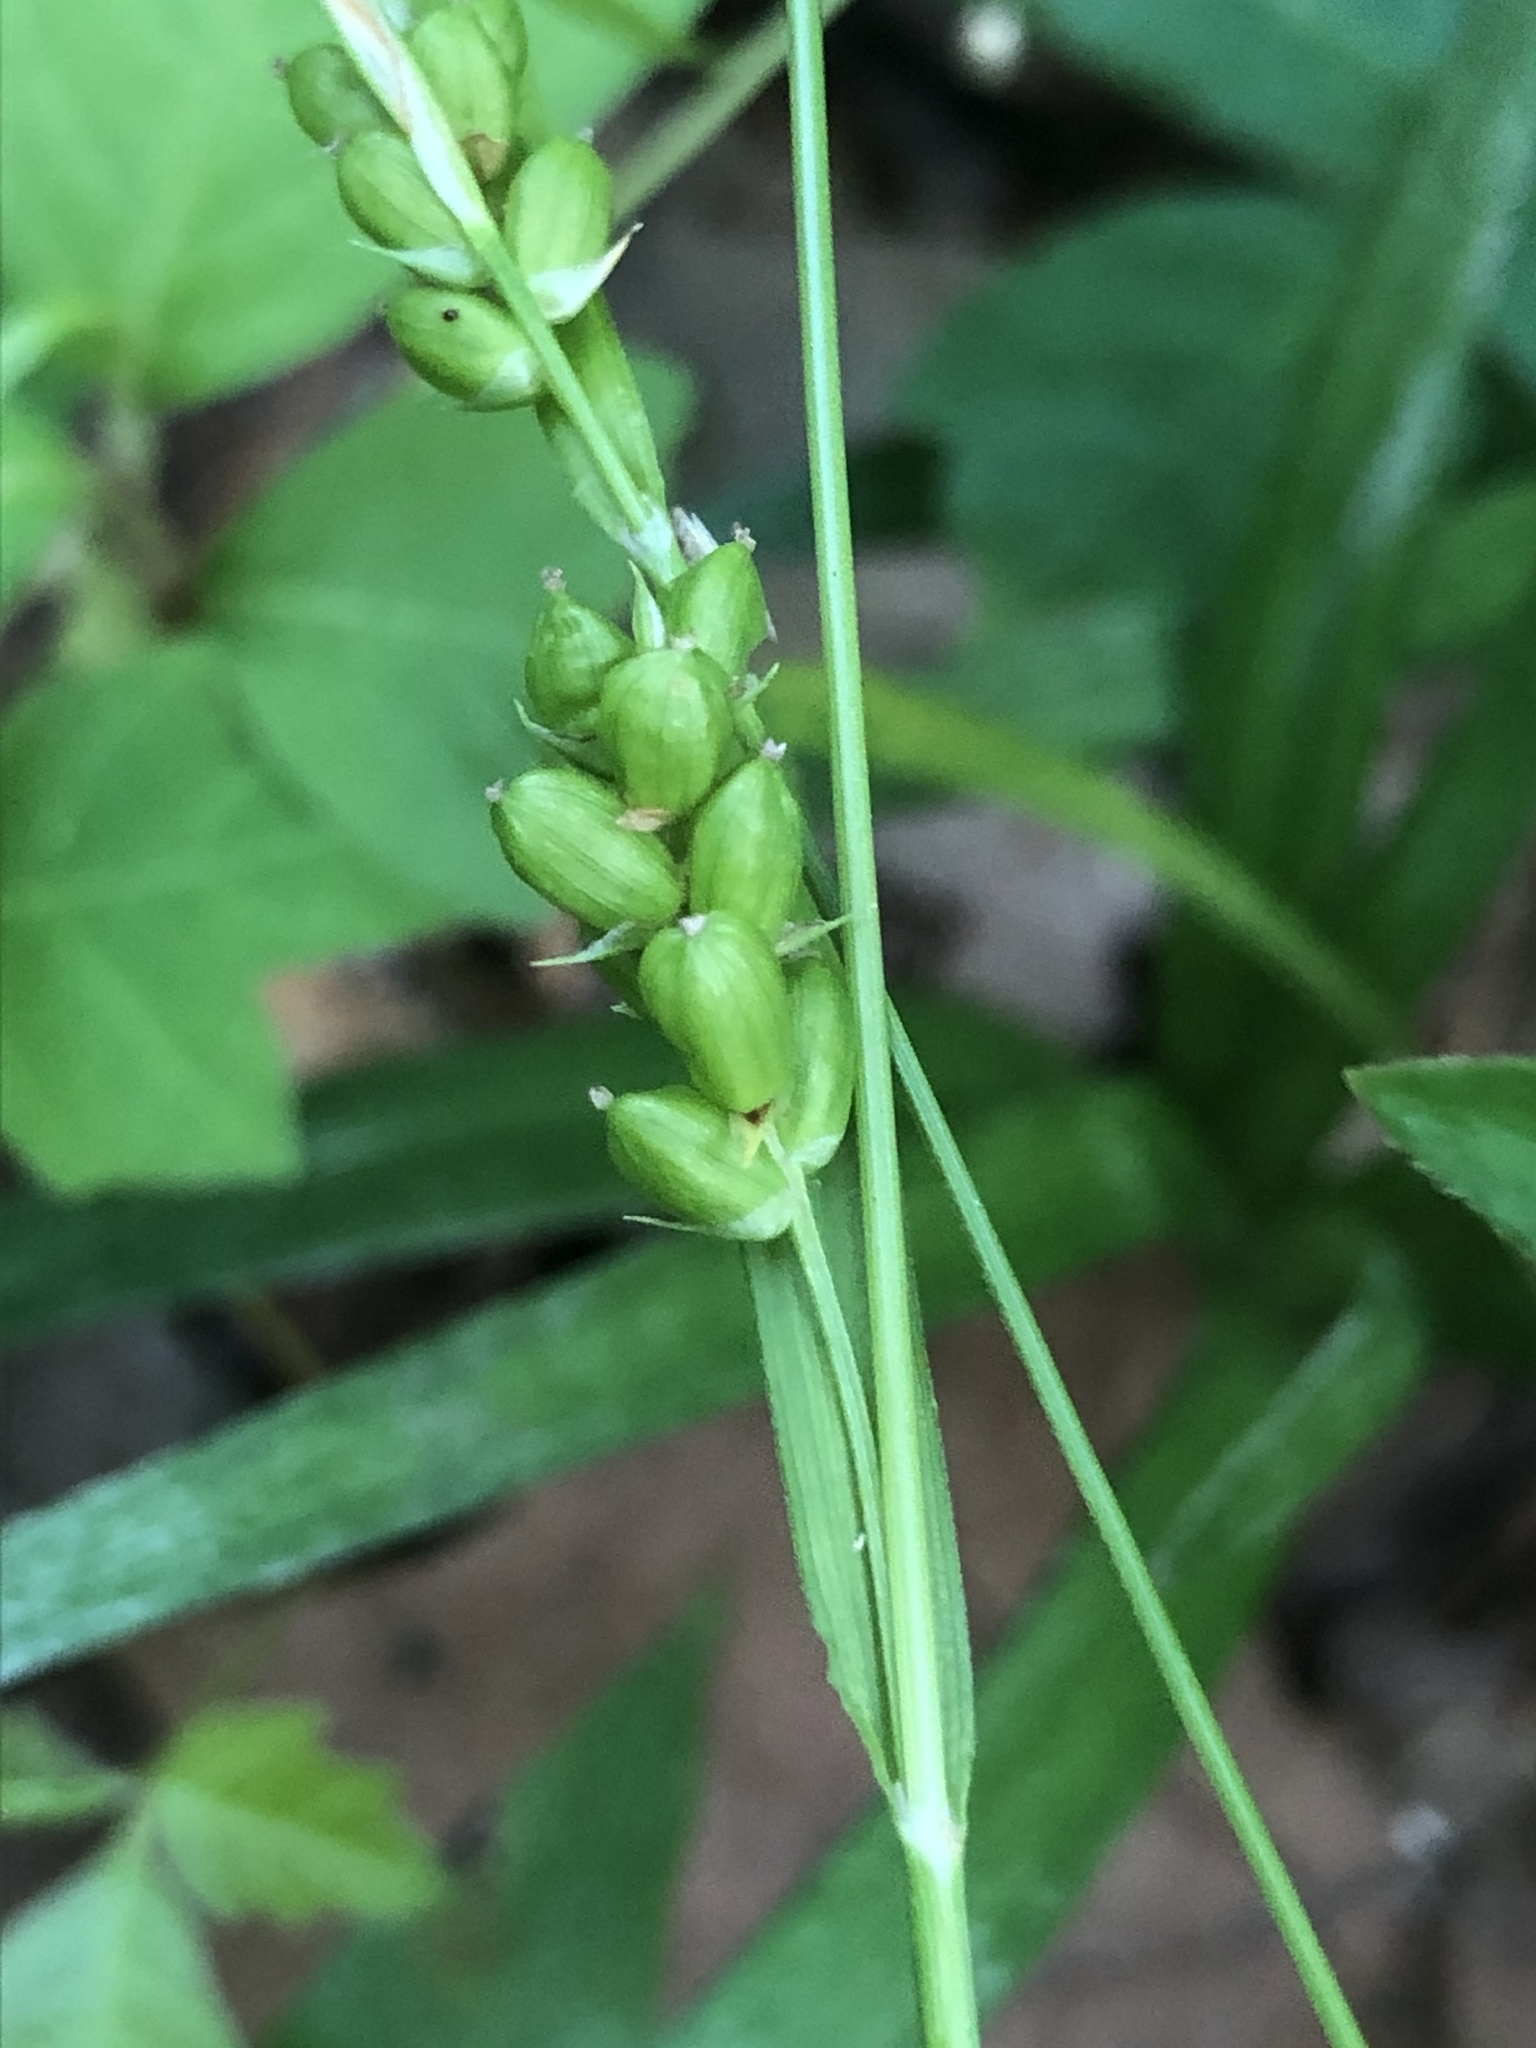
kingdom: Plantae
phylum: Tracheophyta
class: Liliopsida
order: Poales
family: Cyperaceae
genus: Carex
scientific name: Carex corrugata
